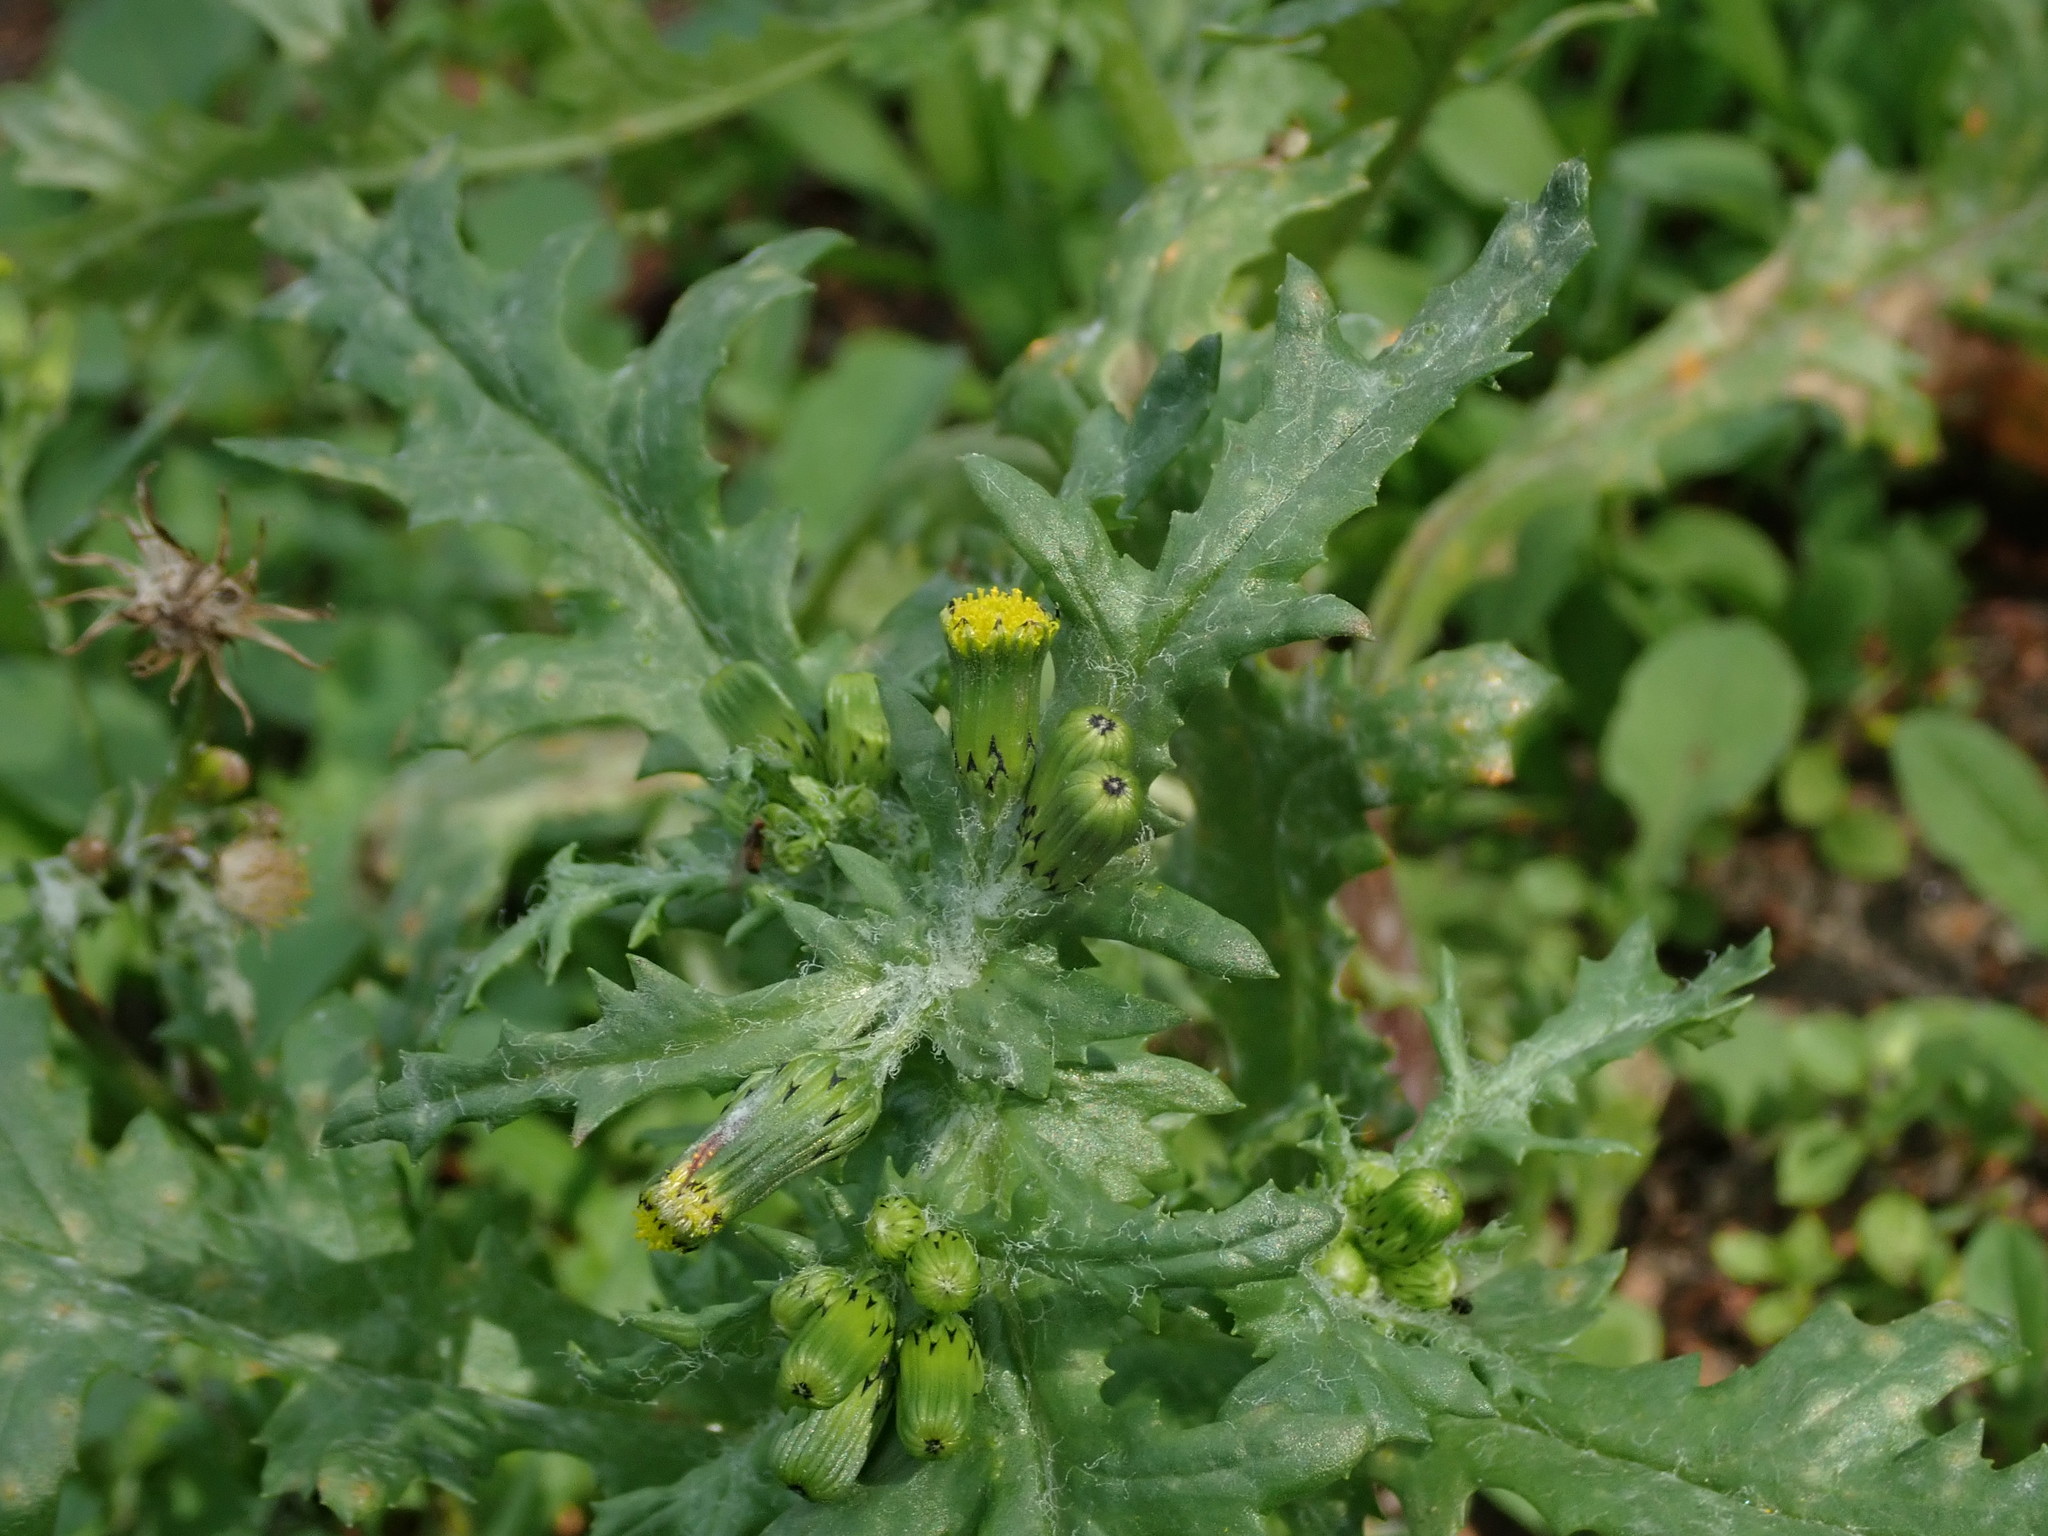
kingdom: Plantae
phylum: Tracheophyta
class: Magnoliopsida
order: Asterales
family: Asteraceae
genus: Senecio
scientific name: Senecio vulgaris
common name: Old-man-in-the-spring
